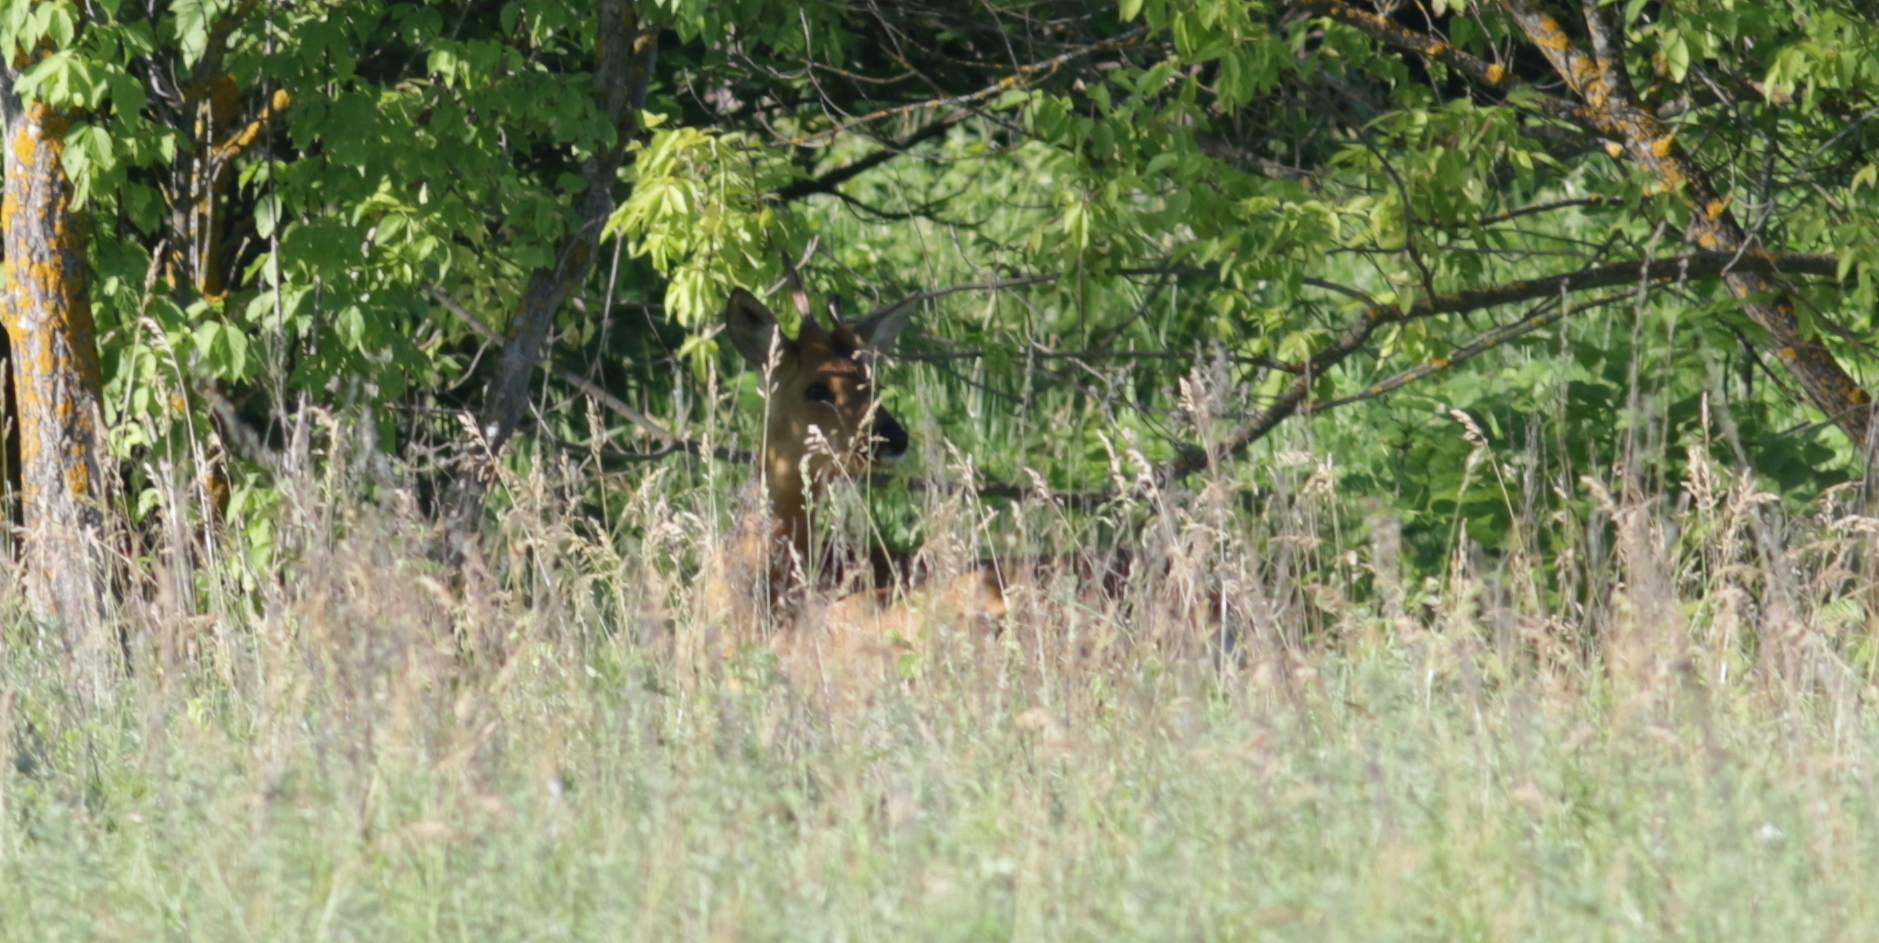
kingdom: Animalia
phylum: Chordata
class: Mammalia
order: Artiodactyla
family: Cervidae
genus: Capreolus
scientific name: Capreolus pygargus
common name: Siberian roe
